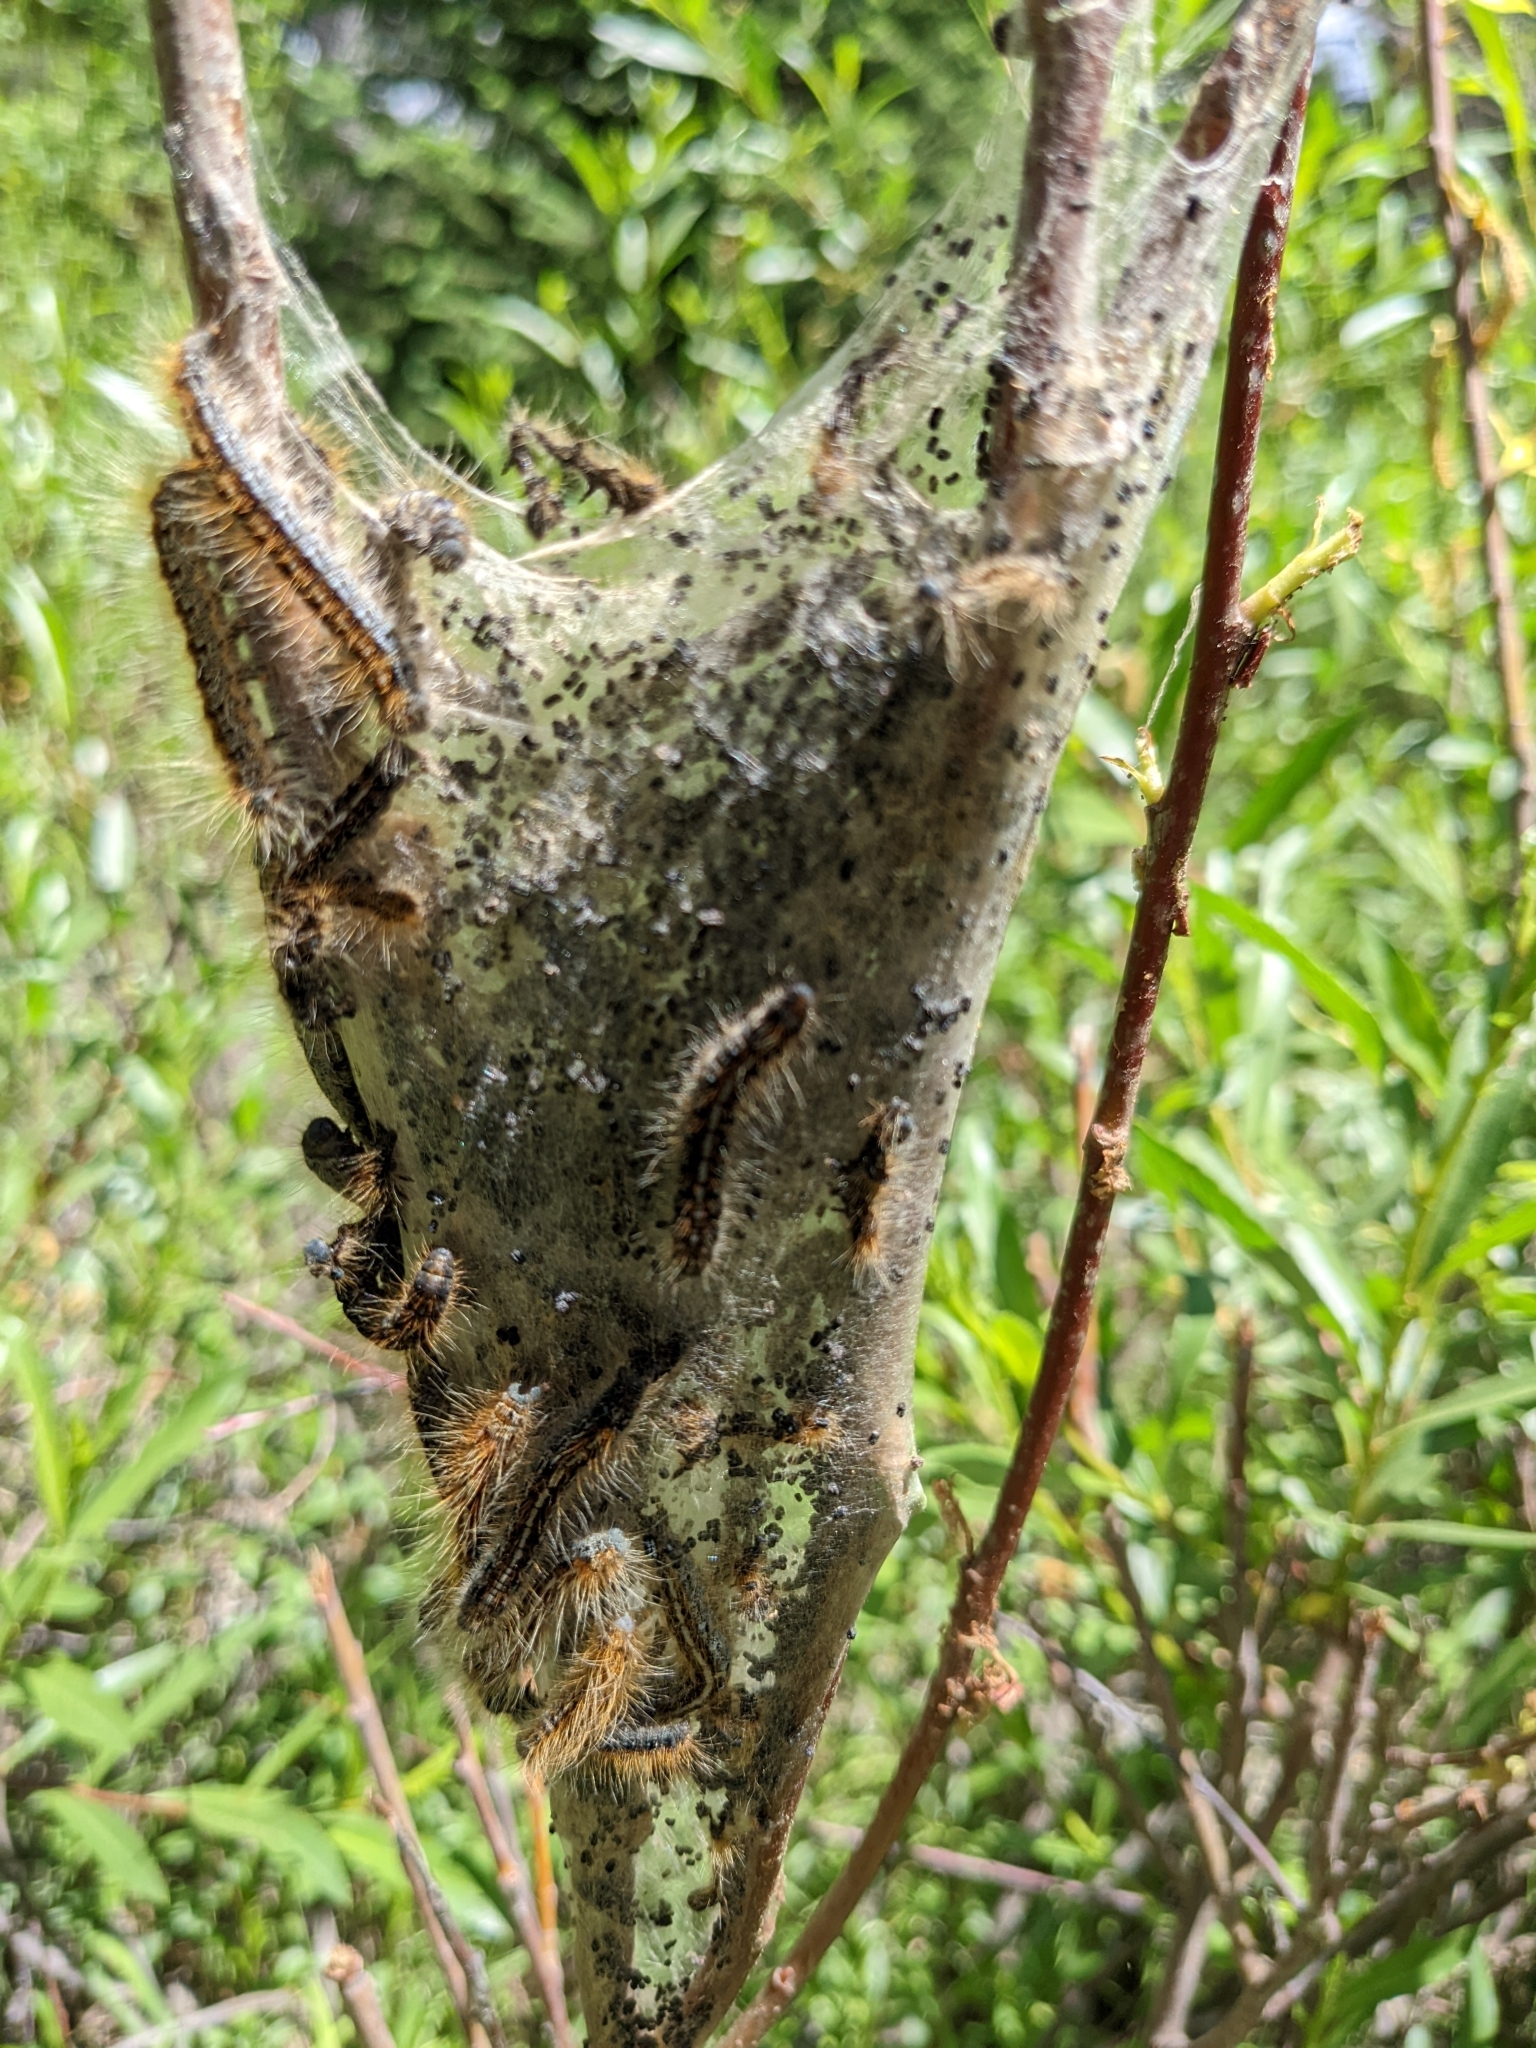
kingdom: Animalia
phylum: Arthropoda
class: Insecta
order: Lepidoptera
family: Lasiocampidae
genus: Malacosoma
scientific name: Malacosoma californica
